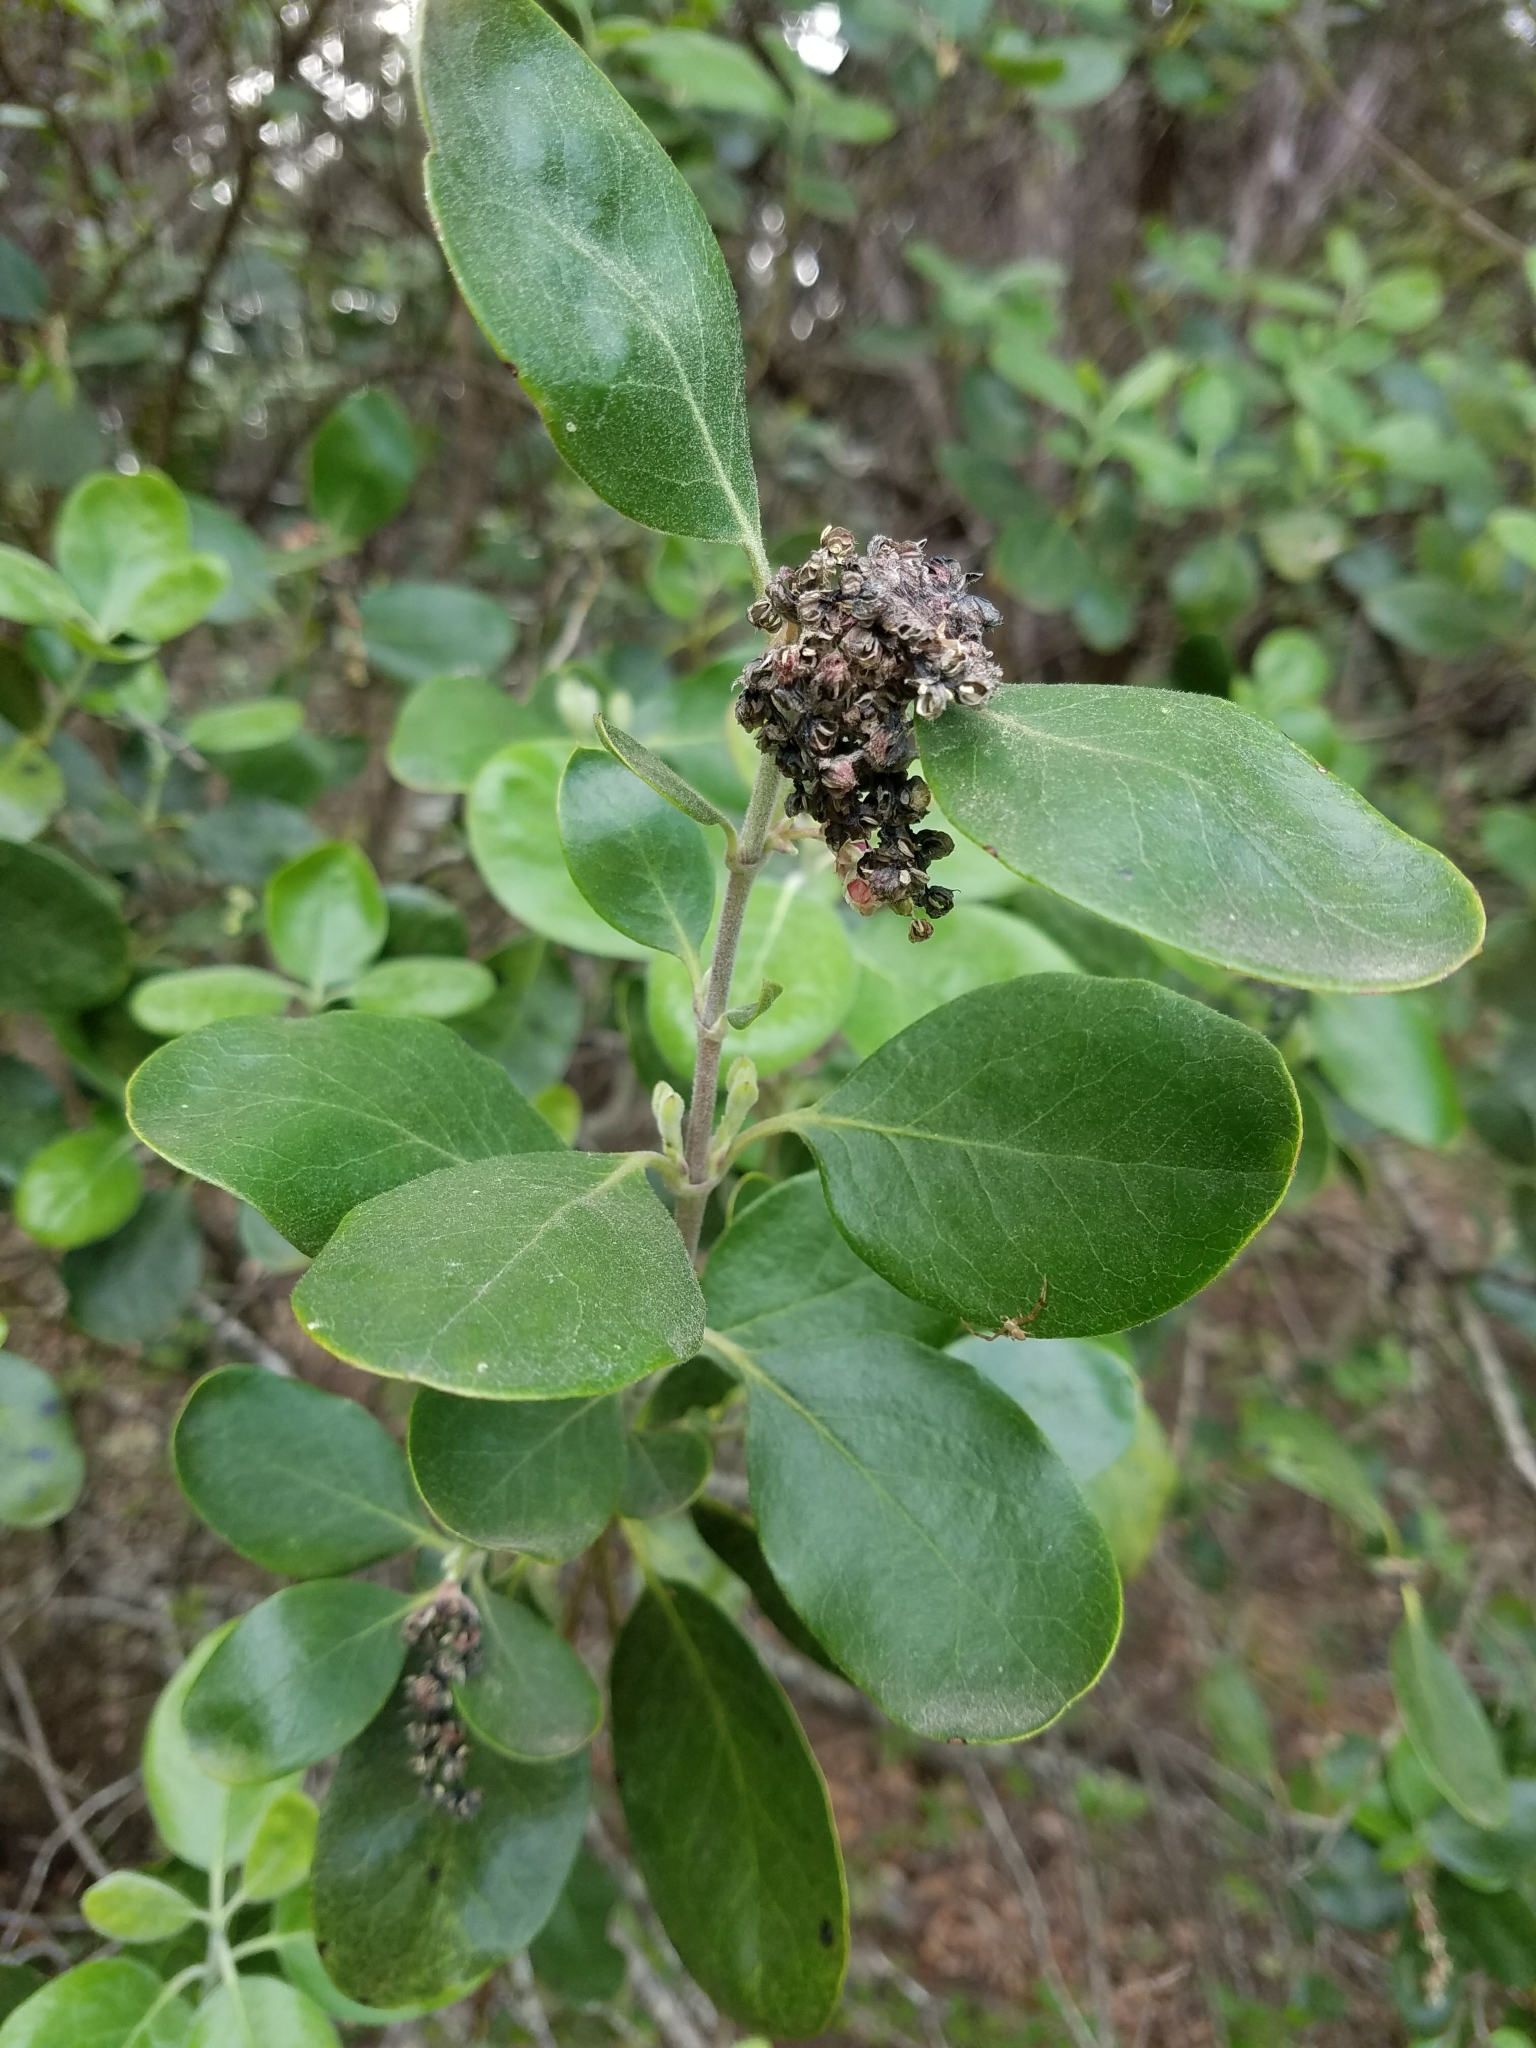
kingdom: Plantae
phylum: Tracheophyta
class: Magnoliopsida
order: Garryales
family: Garryaceae
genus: Garrya
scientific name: Garrya lindheimeri
